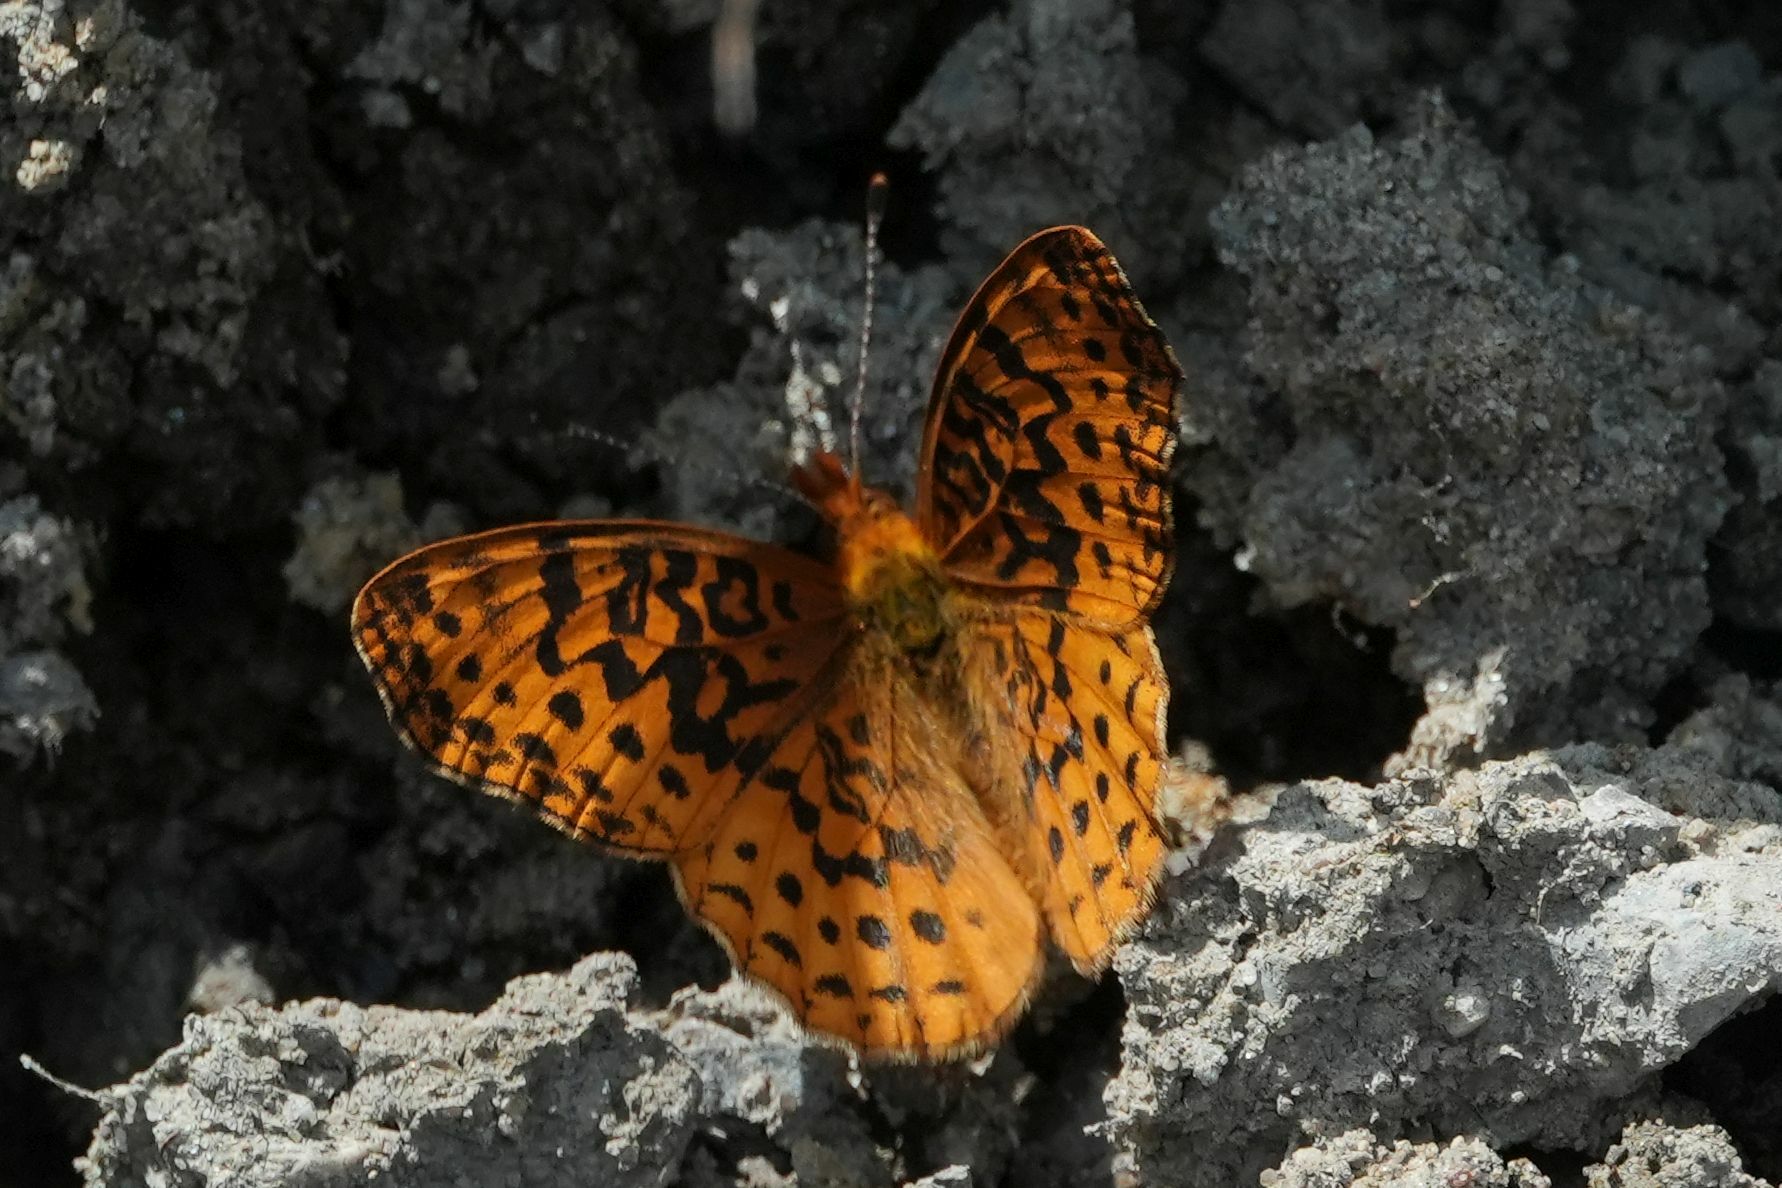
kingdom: Animalia
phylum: Arthropoda
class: Insecta
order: Lepidoptera
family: Nymphalidae
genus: Clossiana
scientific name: Clossiana toddi
